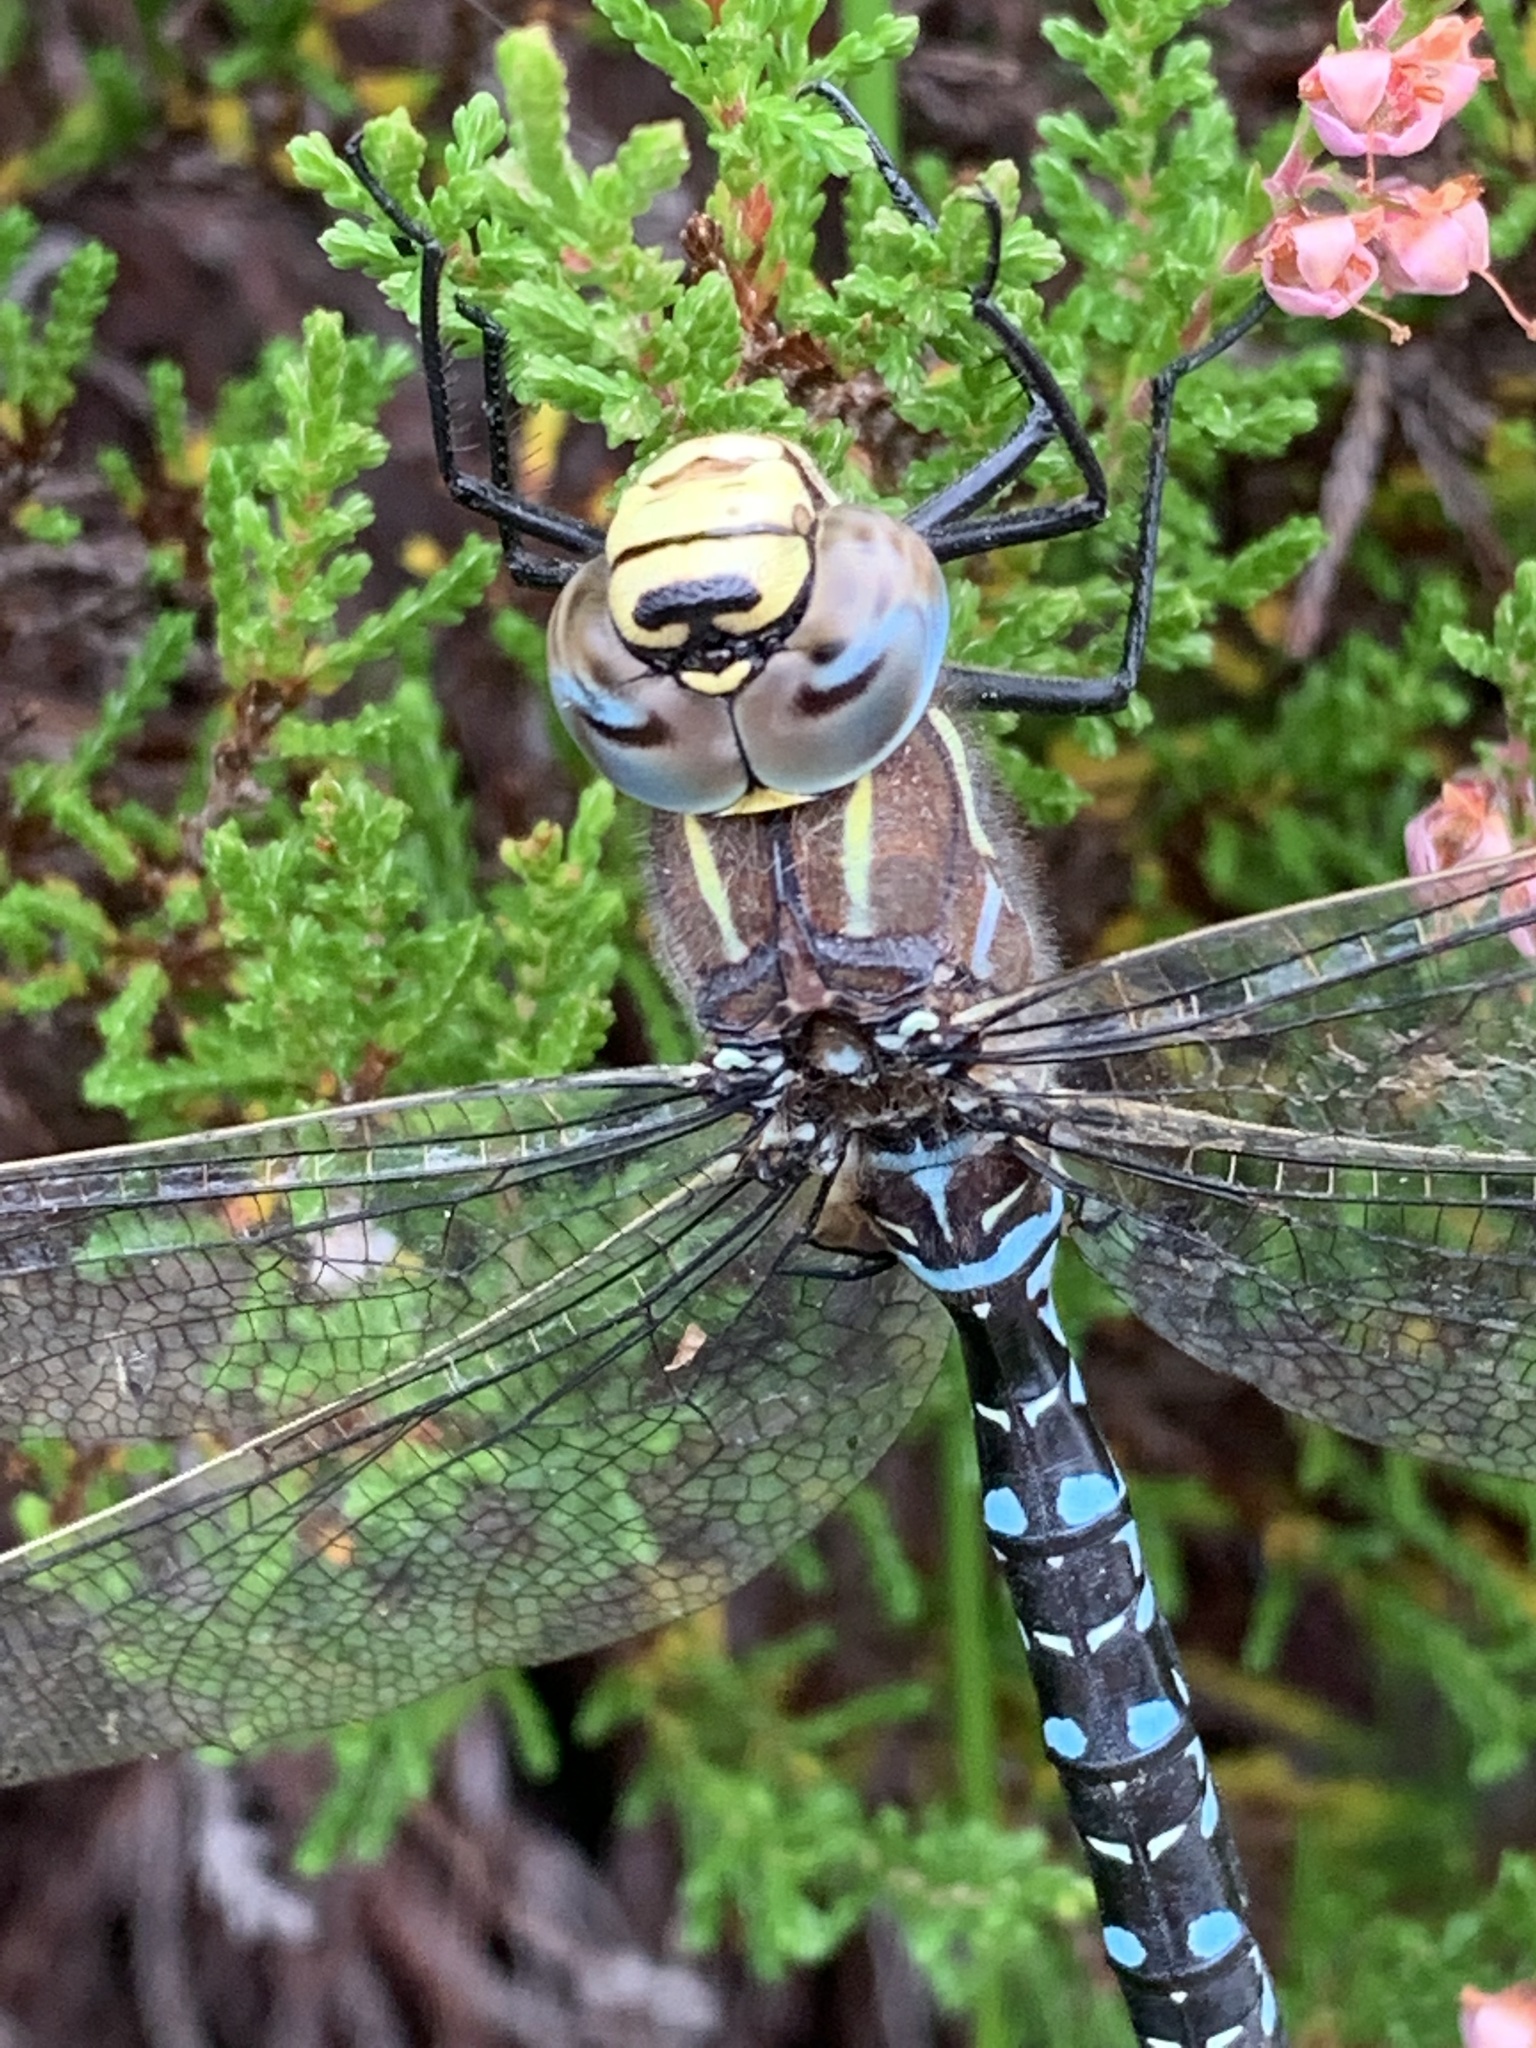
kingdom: Animalia
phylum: Arthropoda
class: Insecta
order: Odonata
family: Aeshnidae
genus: Aeshna
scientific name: Aeshna juncea
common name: Moorland hawker
